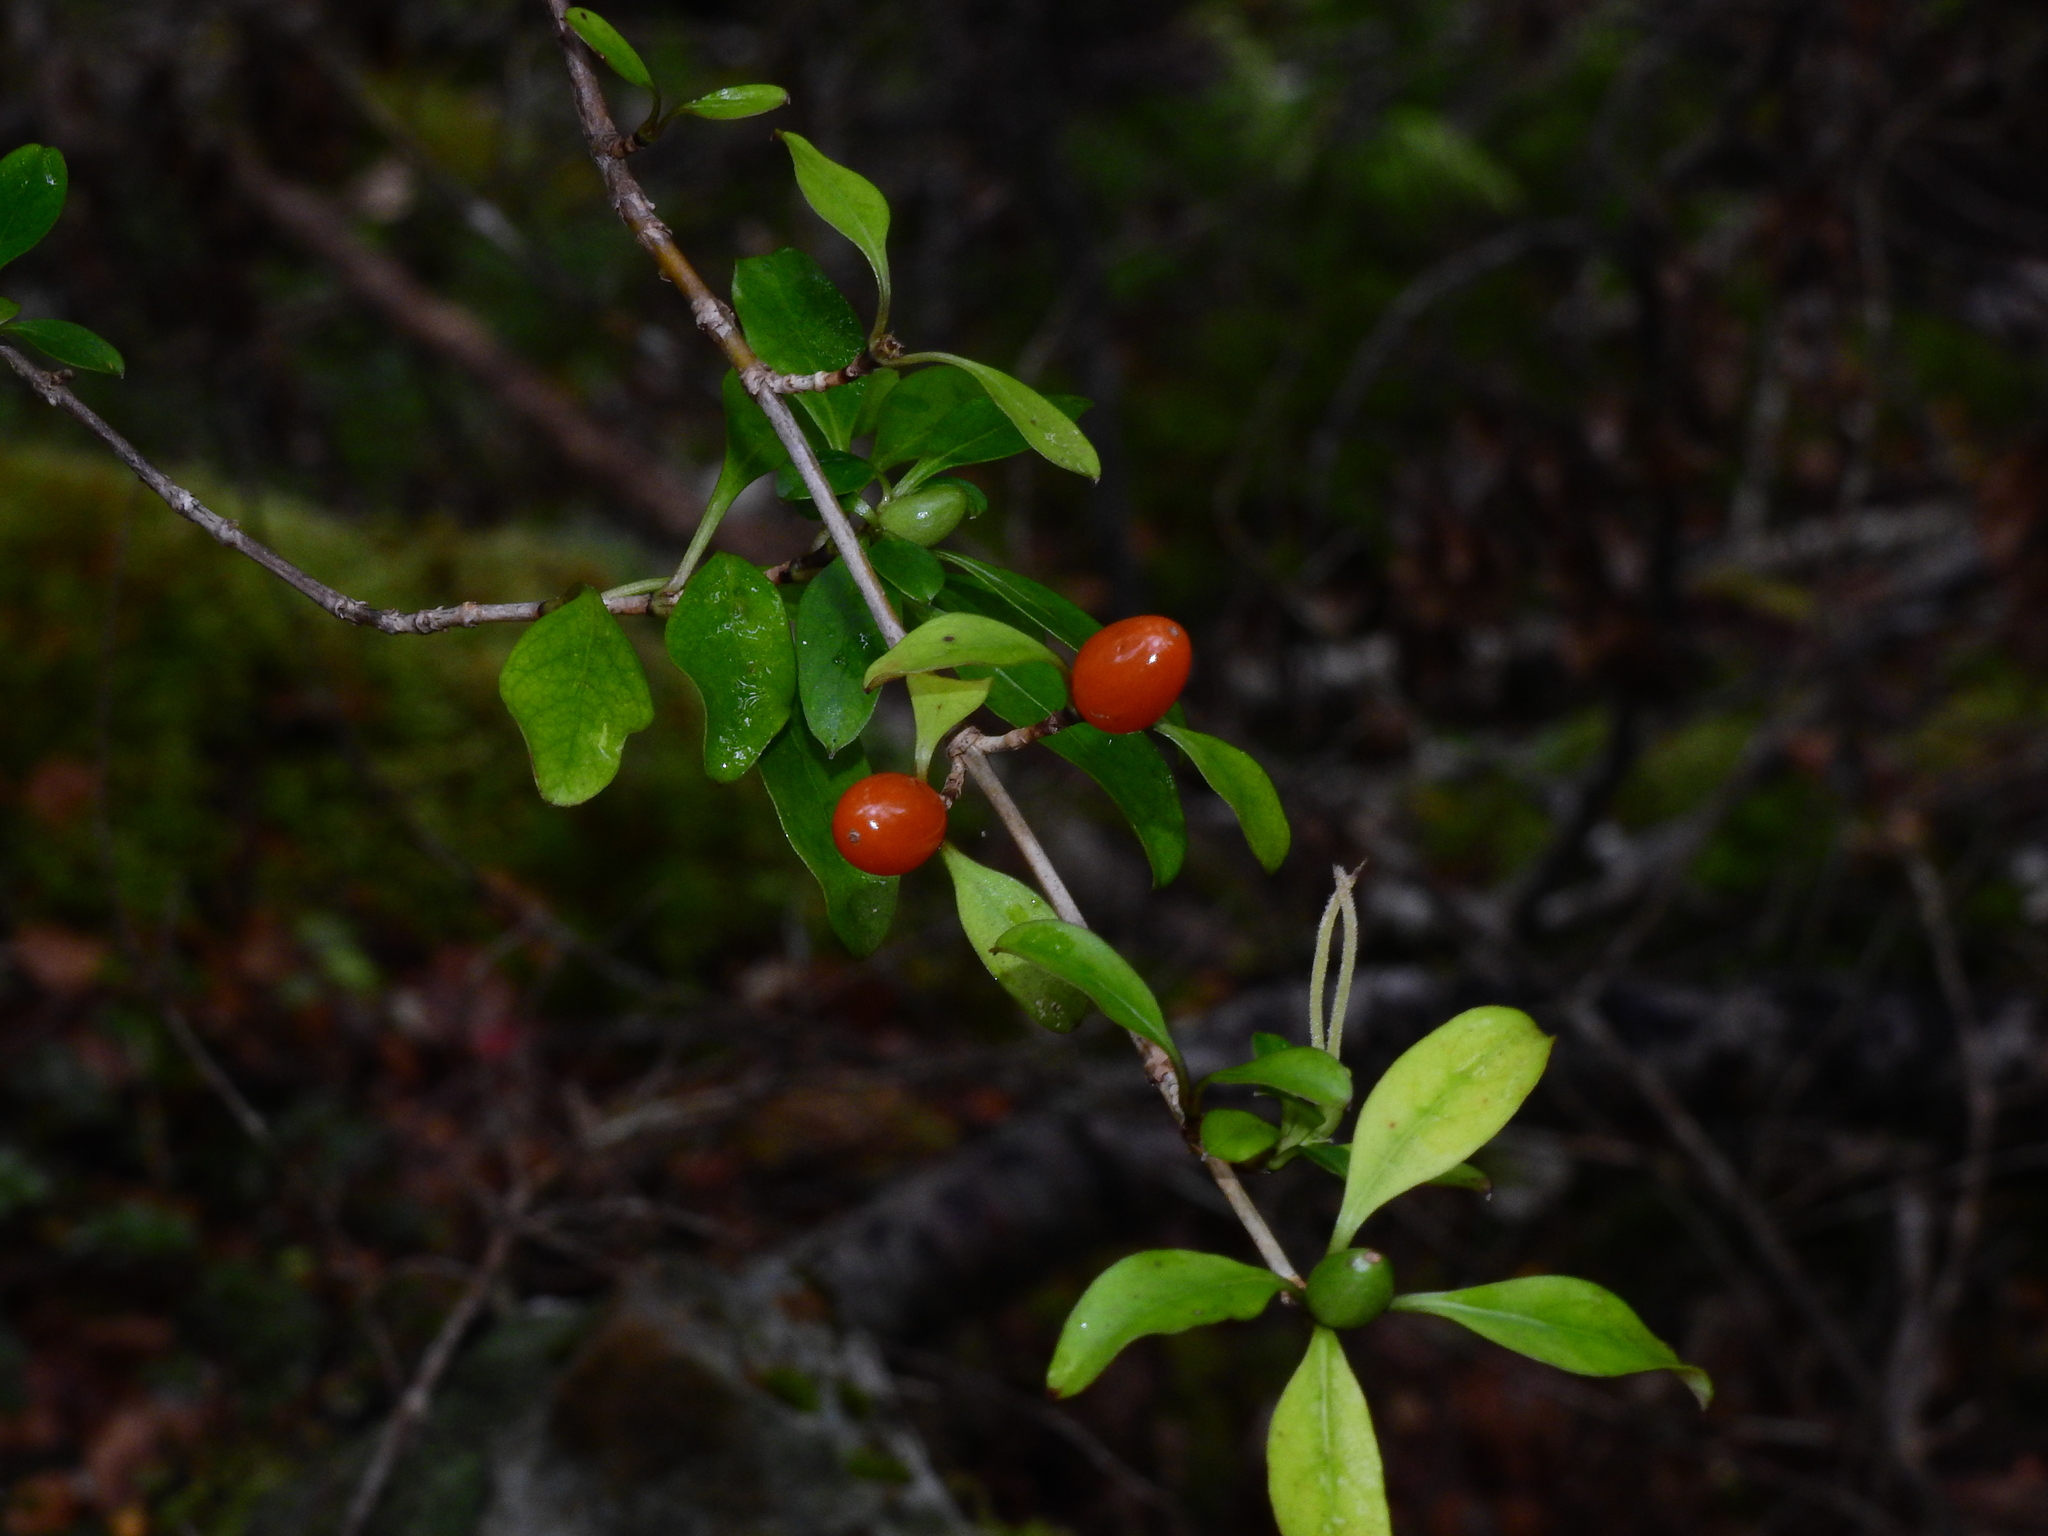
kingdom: Plantae
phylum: Tracheophyta
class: Magnoliopsida
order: Gentianales
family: Rubiaceae
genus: Coprosma
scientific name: Coprosma foetidissima
